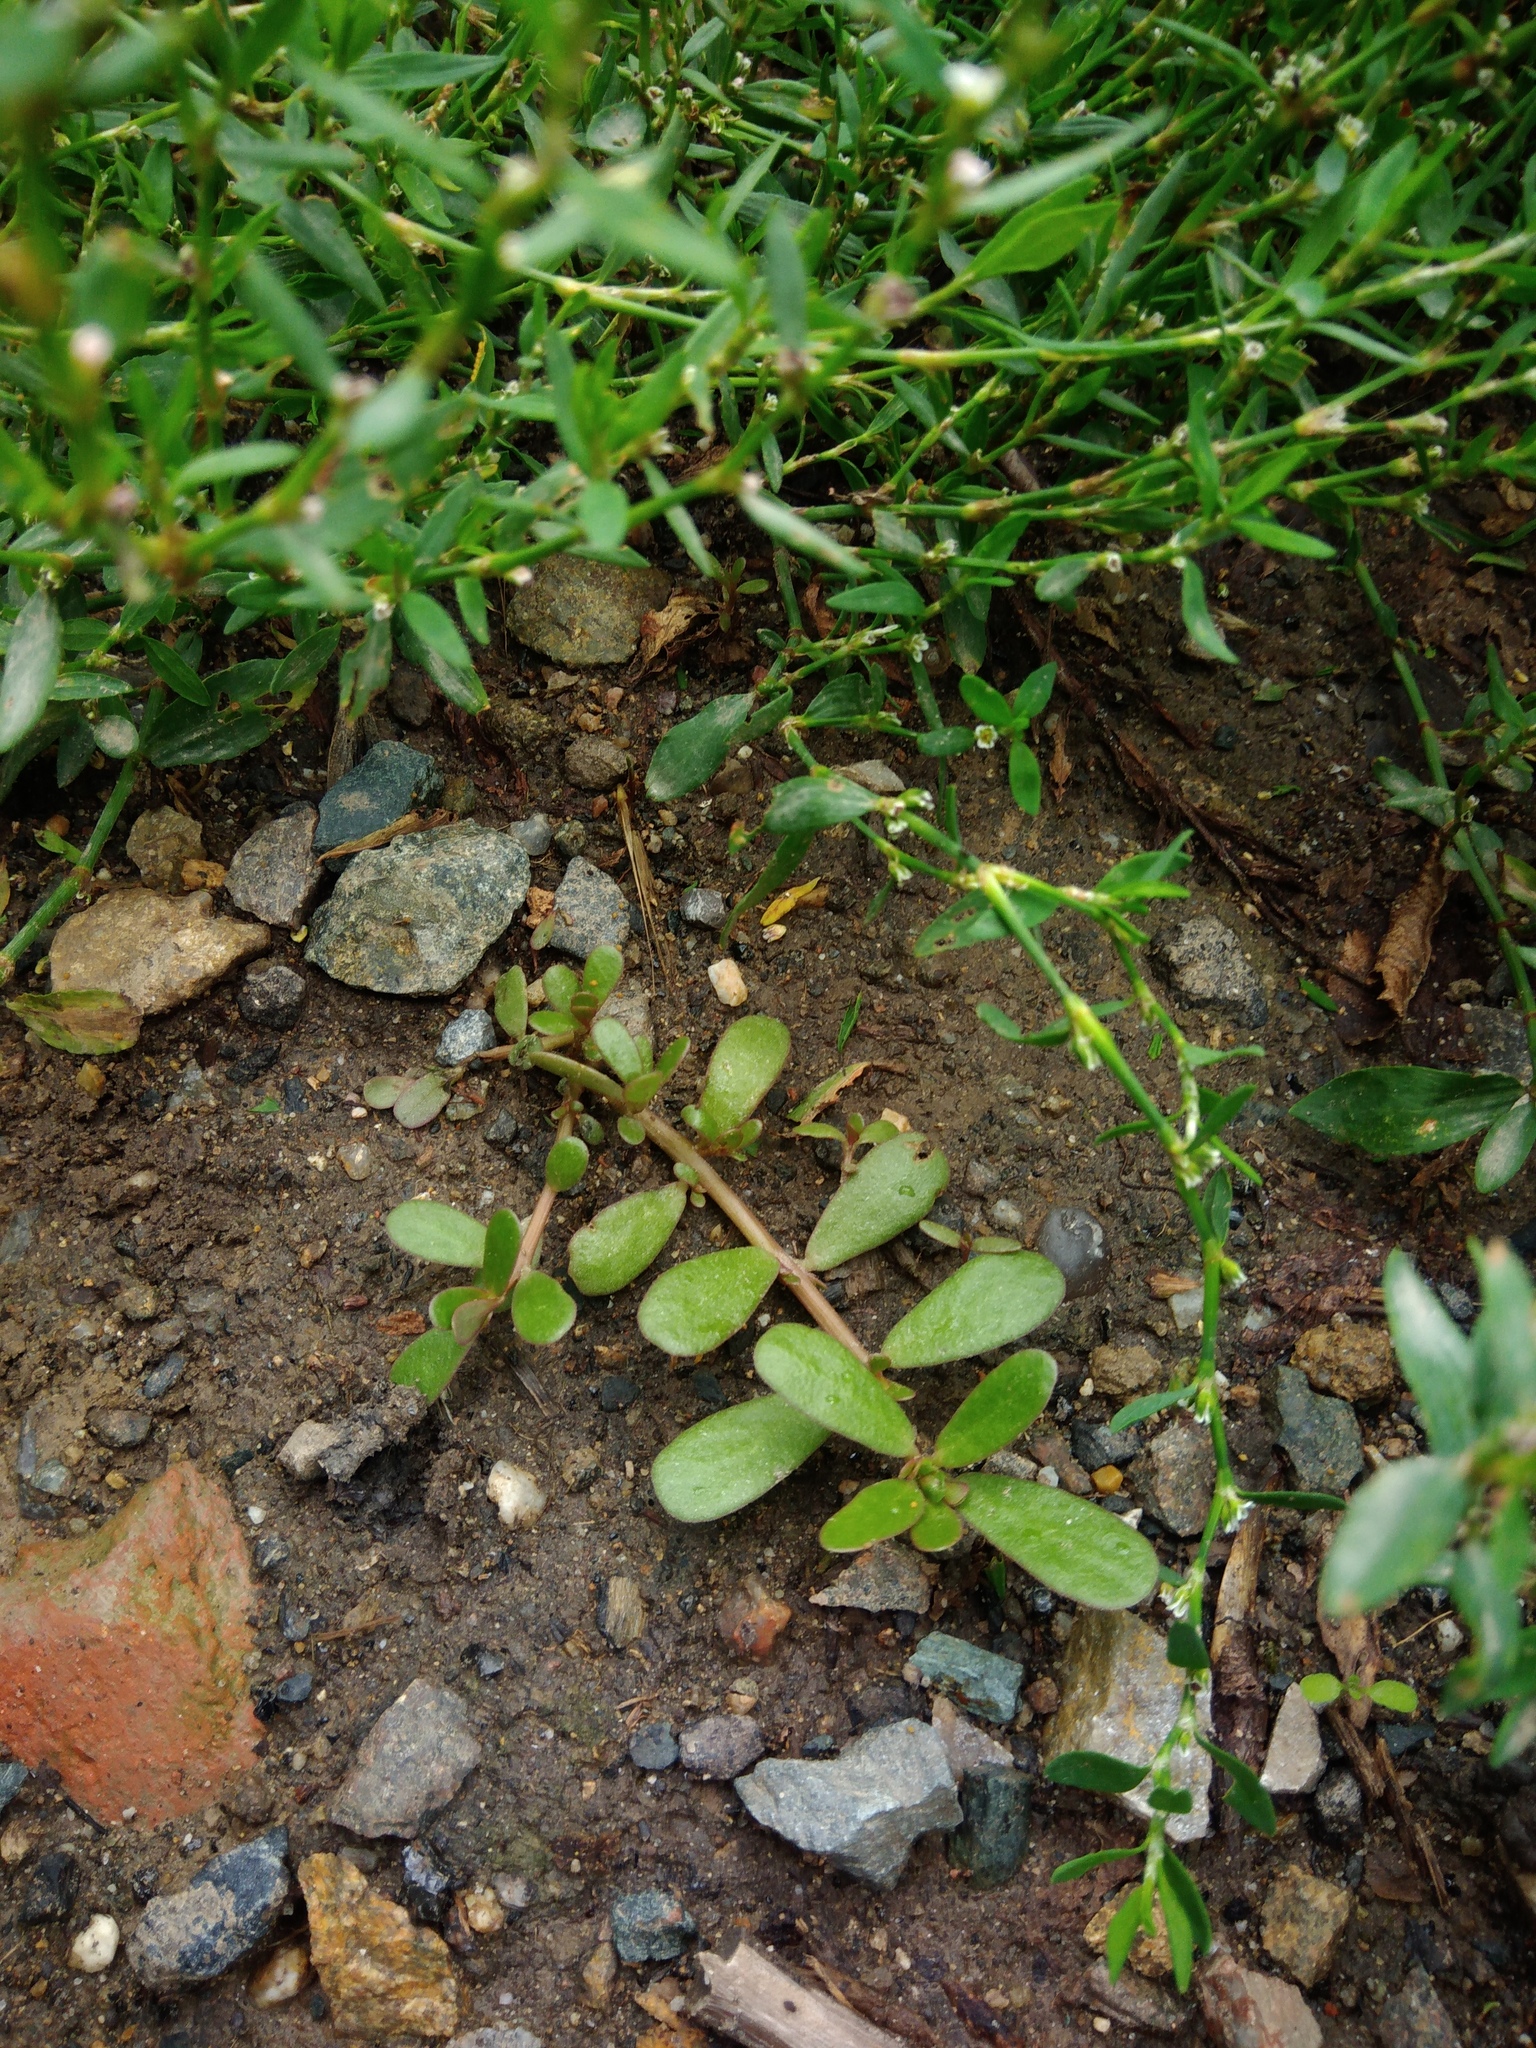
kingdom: Plantae
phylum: Tracheophyta
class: Magnoliopsida
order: Caryophyllales
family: Portulacaceae
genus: Portulaca
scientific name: Portulaca oleracea
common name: Common purslane
